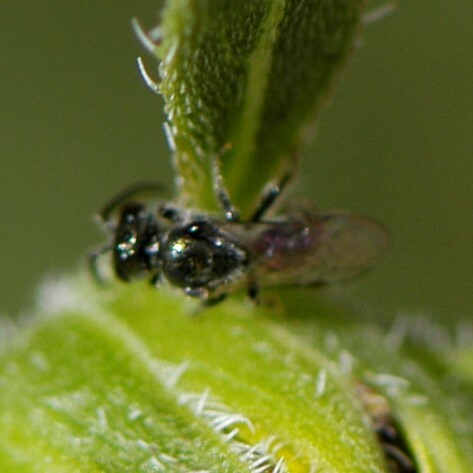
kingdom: Animalia
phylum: Arthropoda
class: Insecta
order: Hymenoptera
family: Halictidae
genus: Dialictus
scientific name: Dialictus
